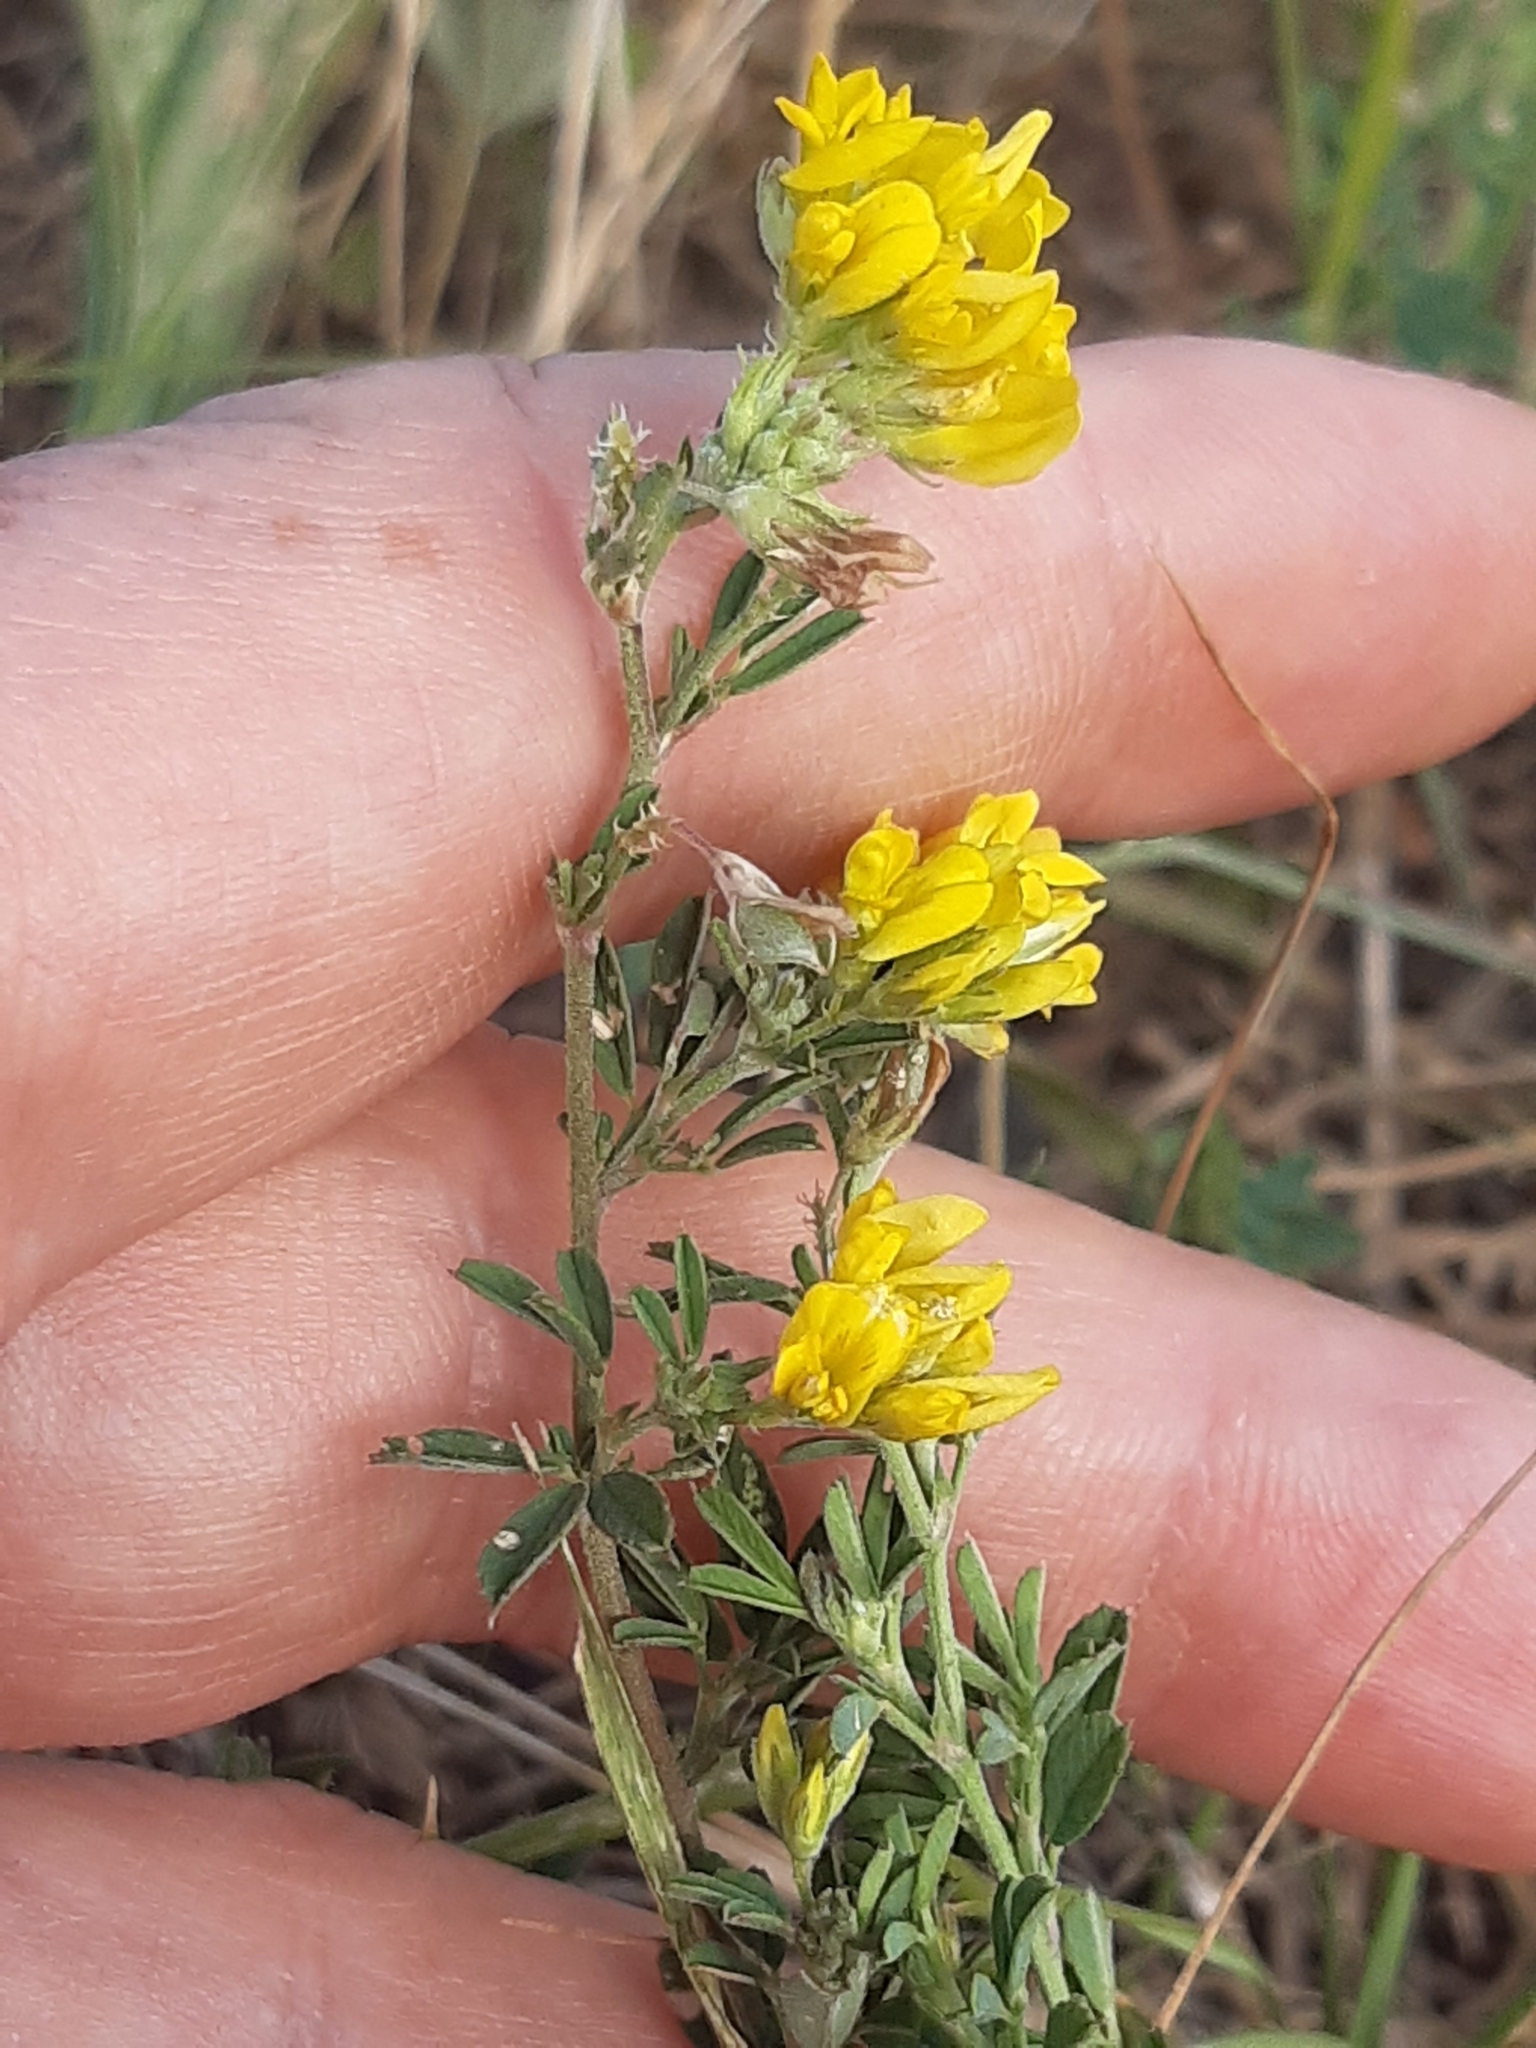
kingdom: Plantae
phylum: Tracheophyta
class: Magnoliopsida
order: Fabales
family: Fabaceae
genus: Medicago
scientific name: Medicago falcata
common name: Sickle medick
